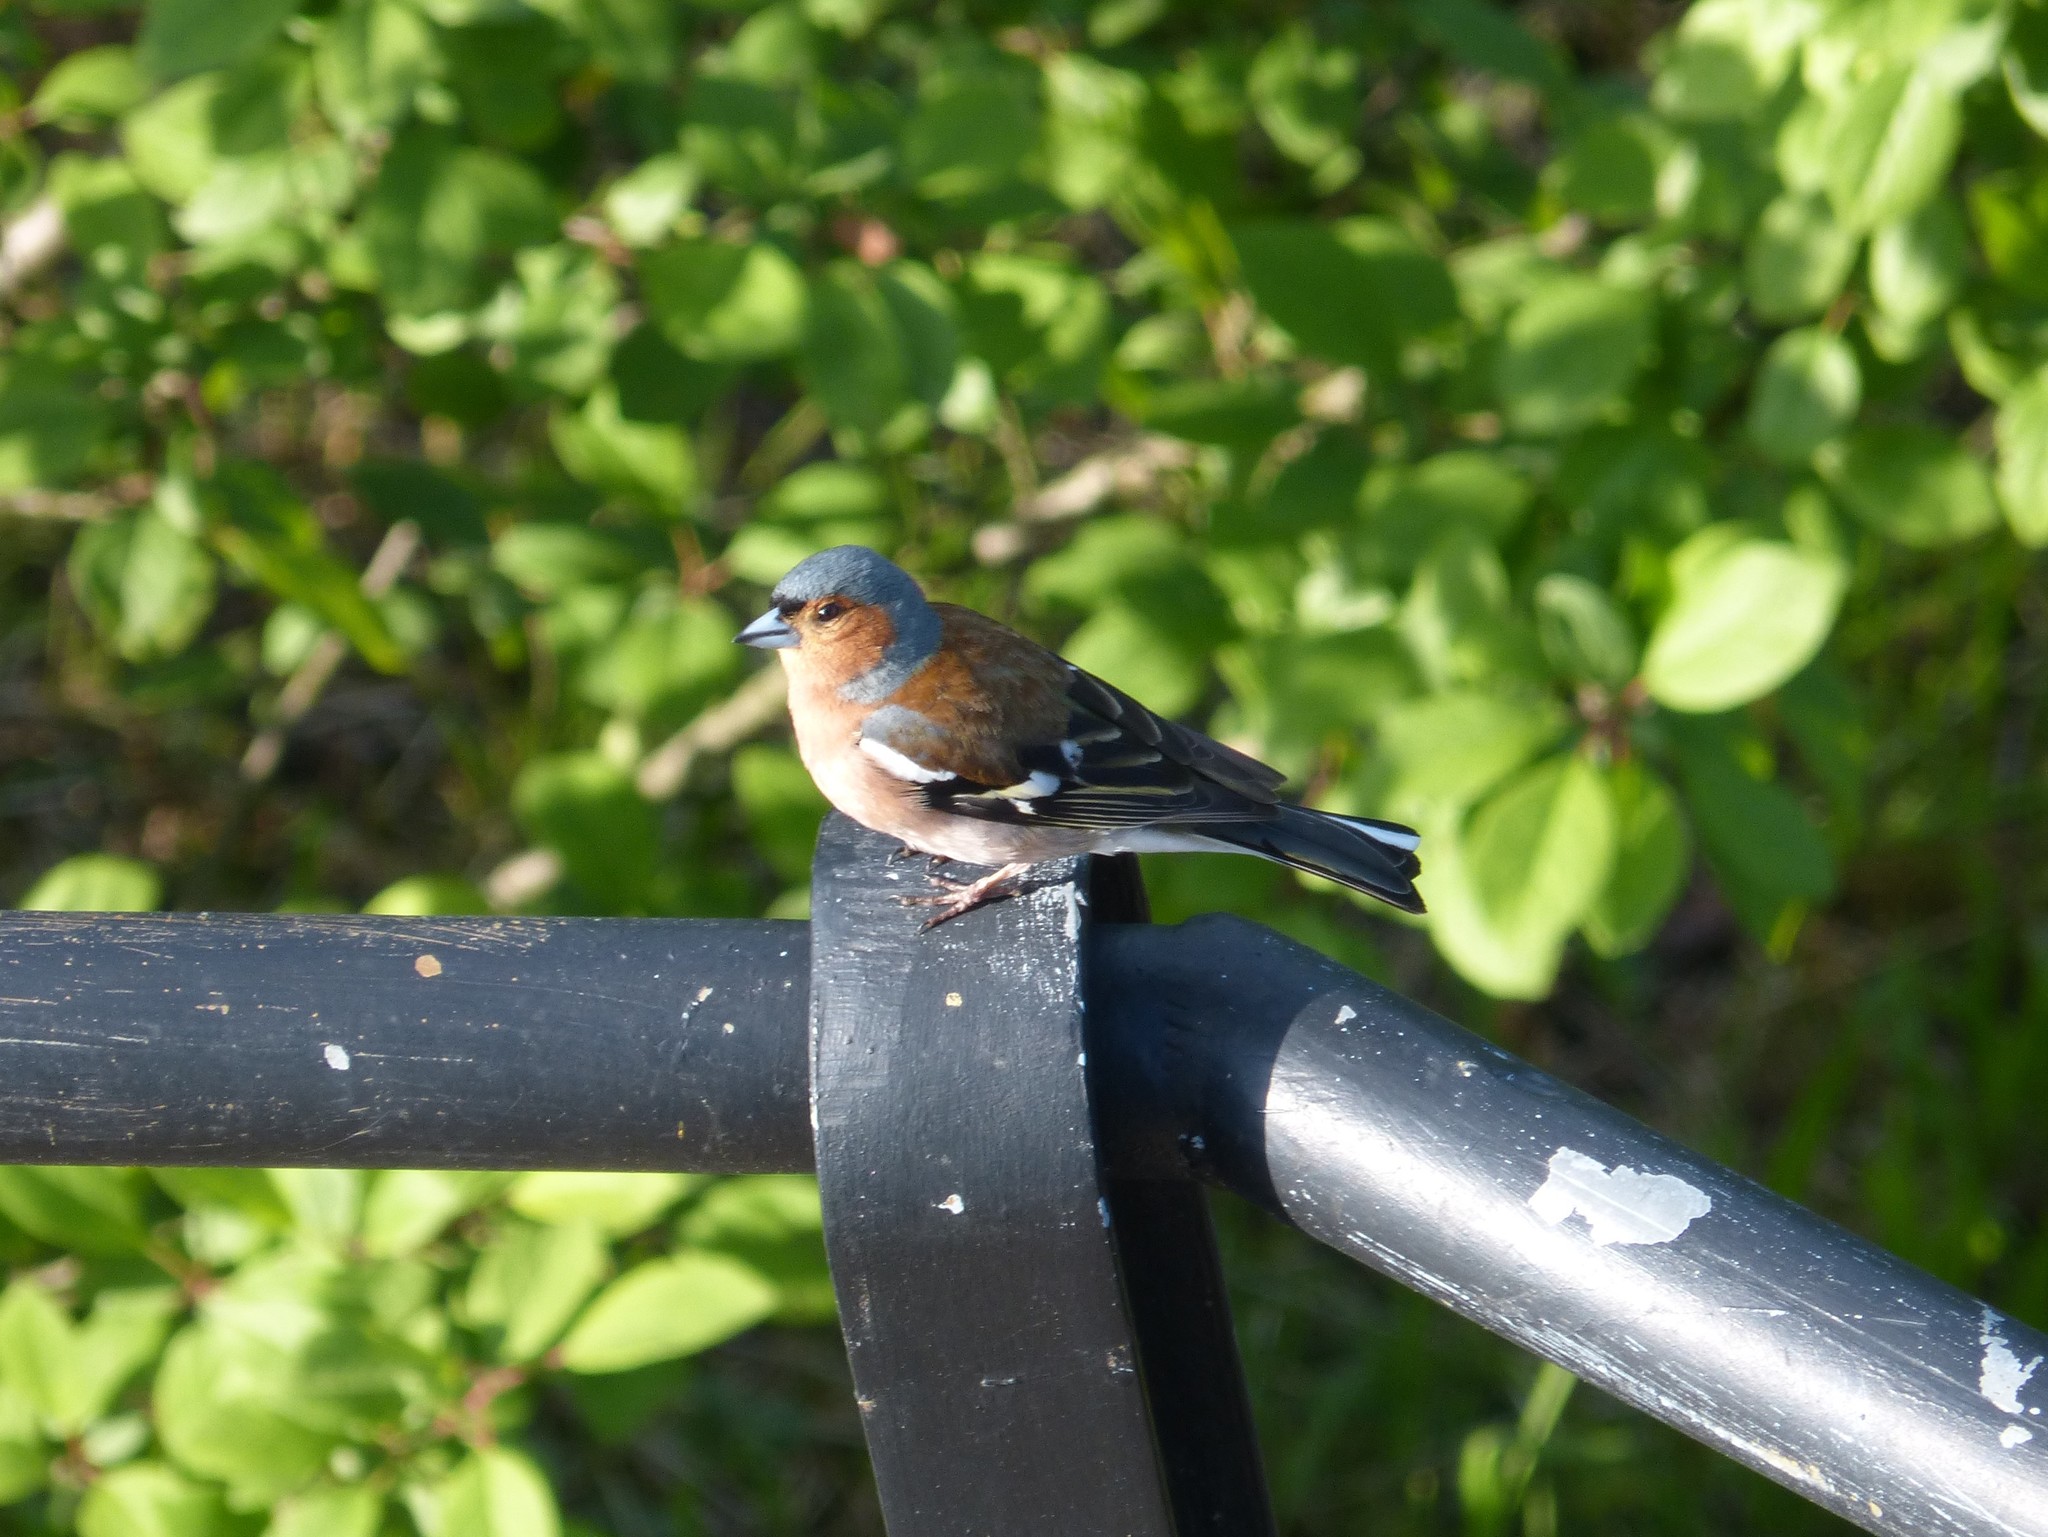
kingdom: Animalia
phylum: Chordata
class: Aves
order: Passeriformes
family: Fringillidae
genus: Fringilla
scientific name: Fringilla coelebs
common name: Common chaffinch
